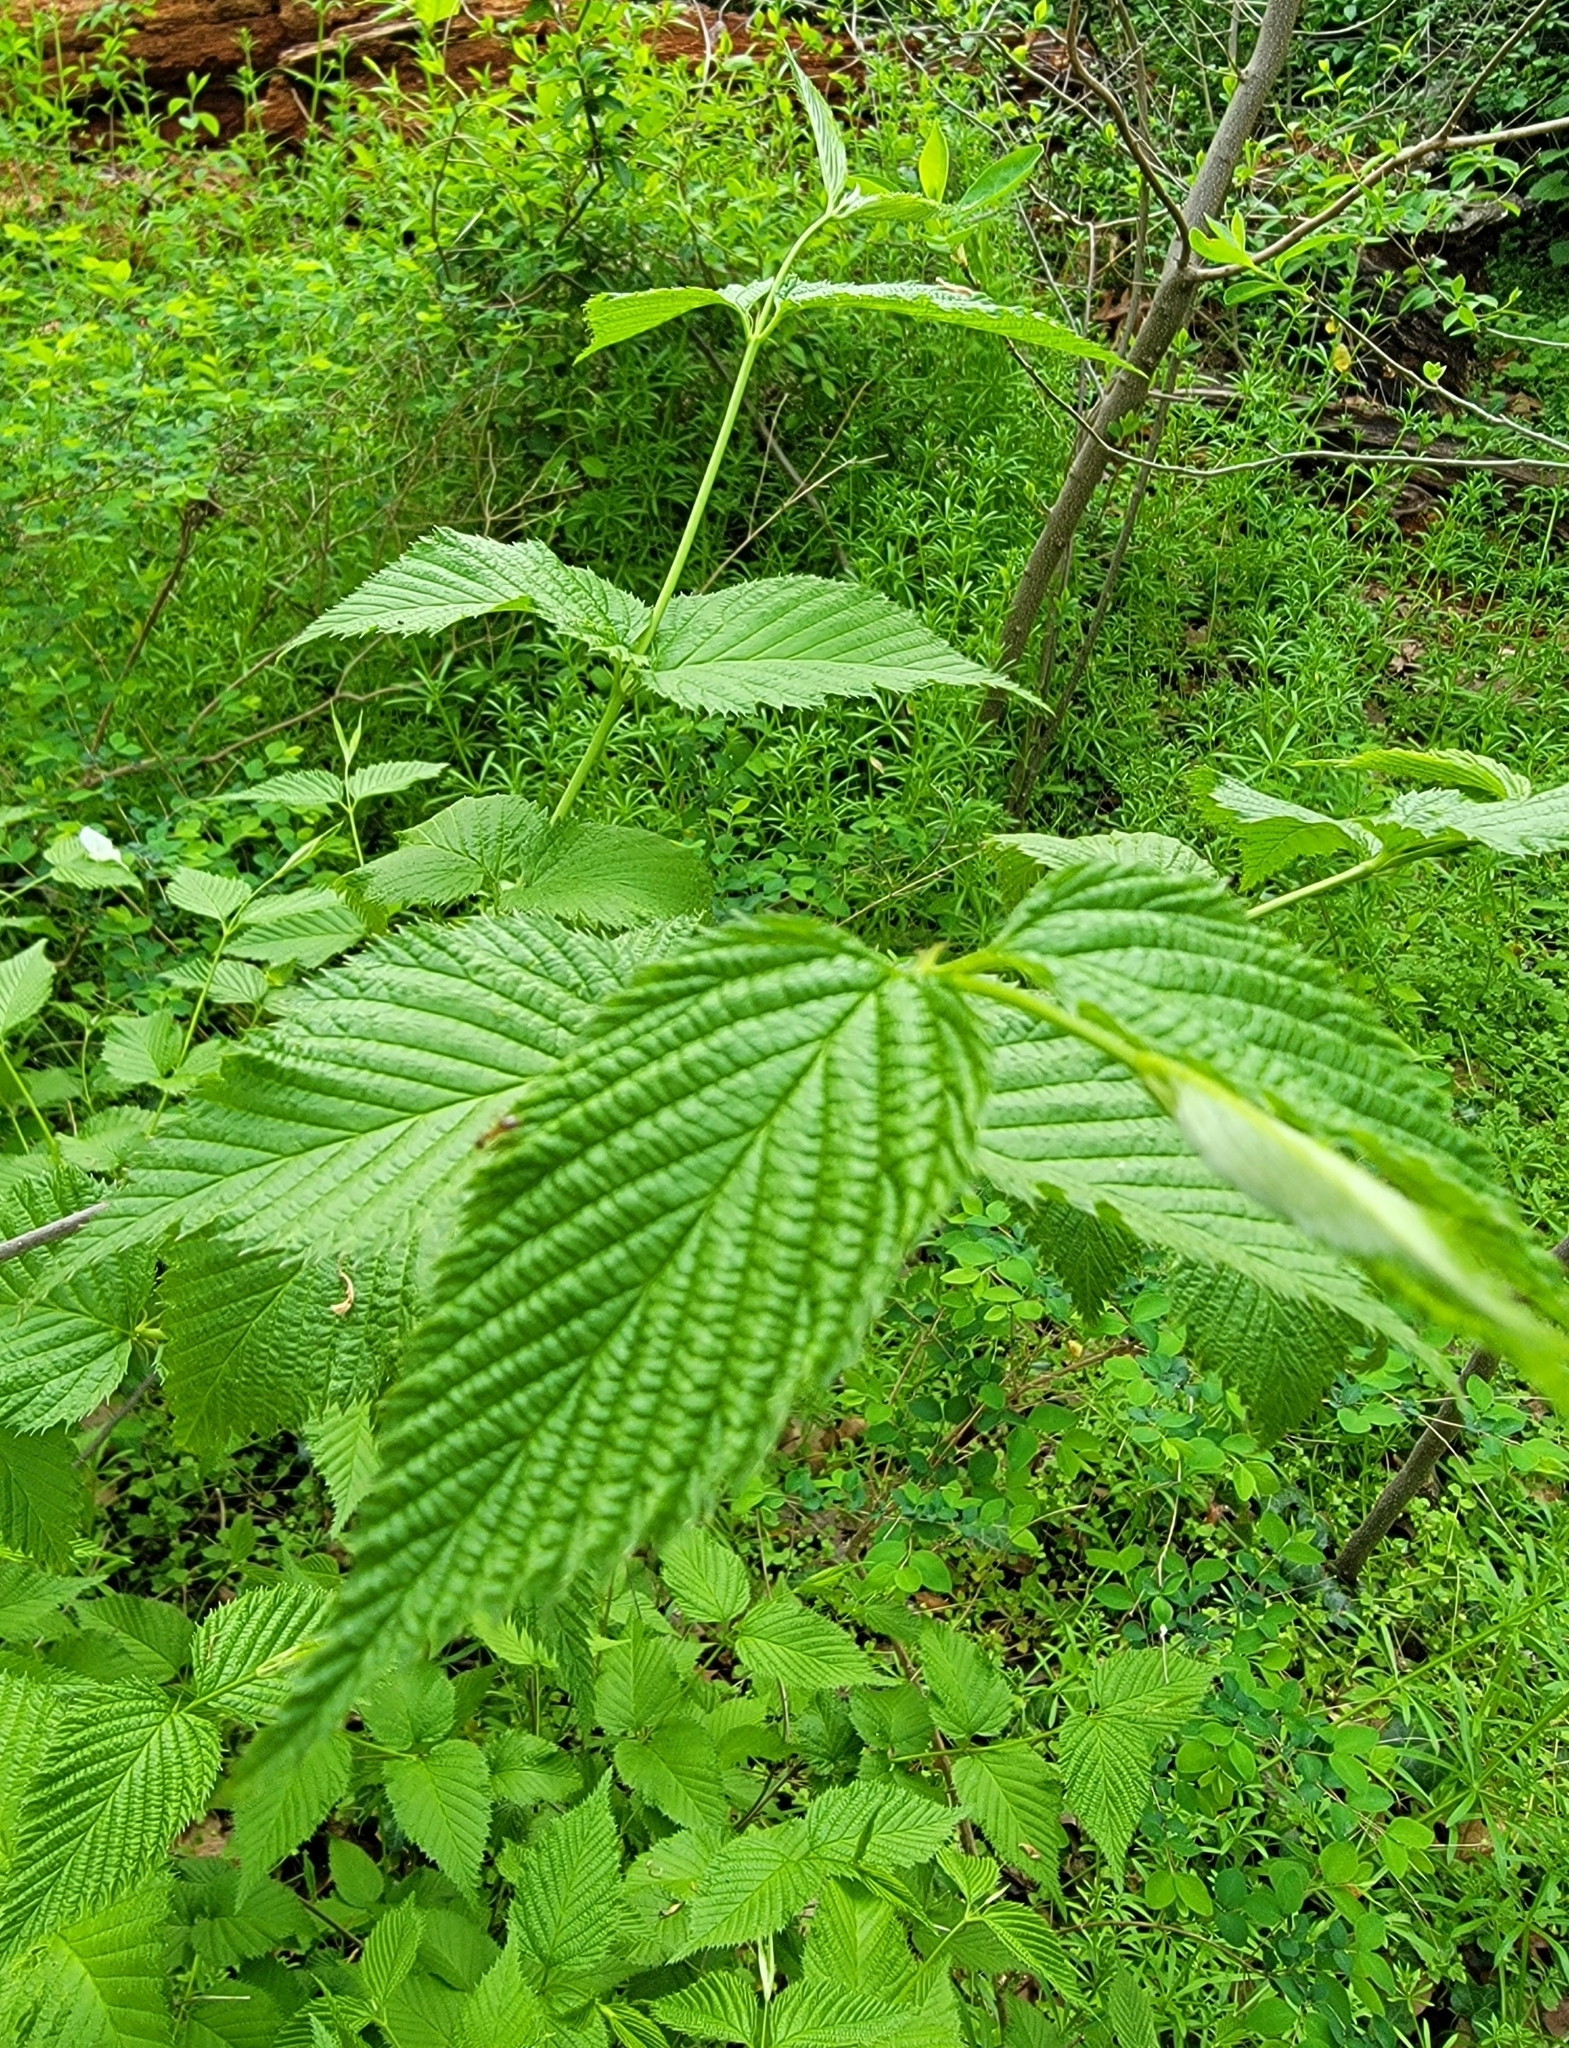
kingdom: Plantae
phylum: Tracheophyta
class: Magnoliopsida
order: Rosales
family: Rosaceae
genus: Rhodotypos
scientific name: Rhodotypos scandens
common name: Jetbead
